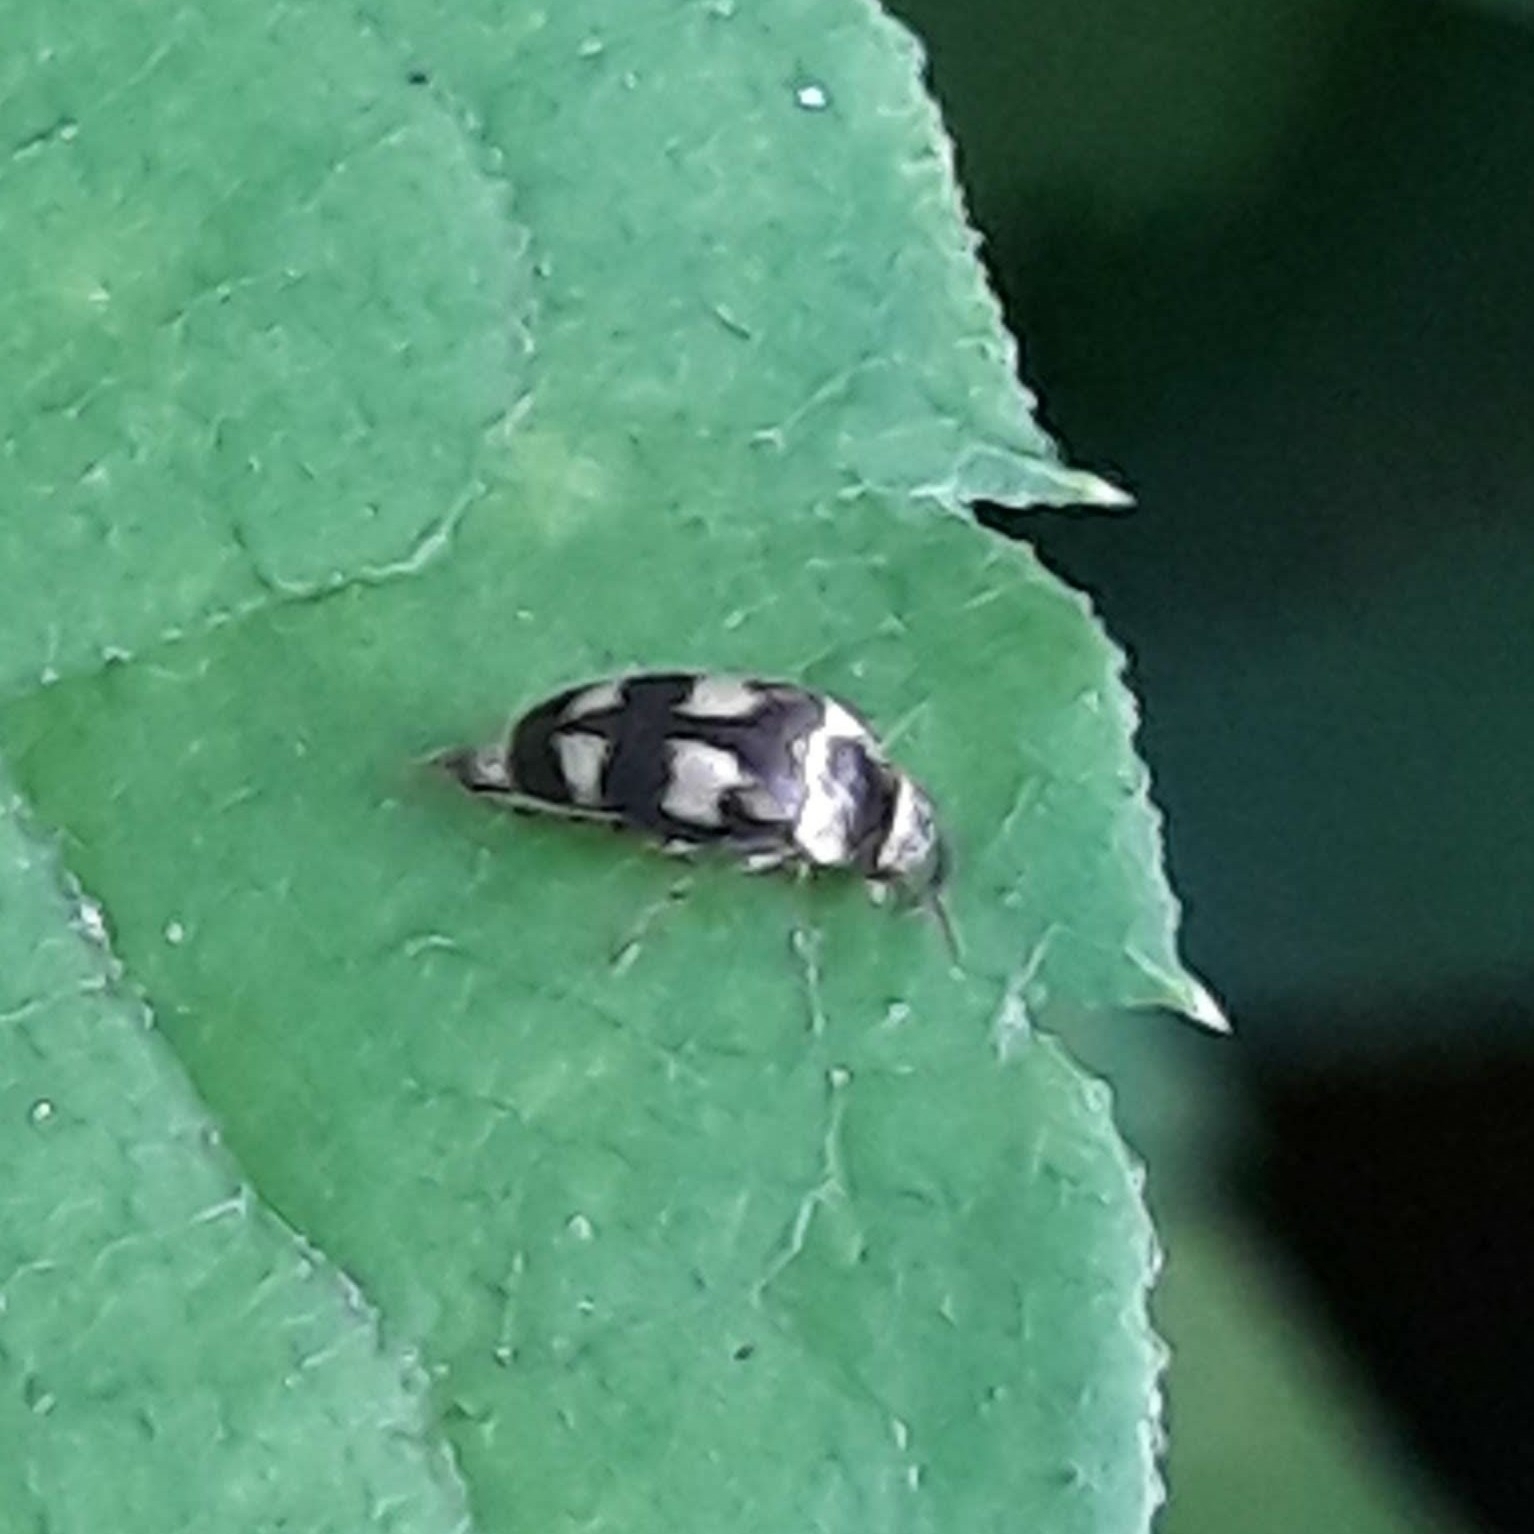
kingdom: Animalia
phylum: Arthropoda
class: Insecta
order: Coleoptera
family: Mordellidae
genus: Mordellistena
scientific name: Mordellistena trifasciata
